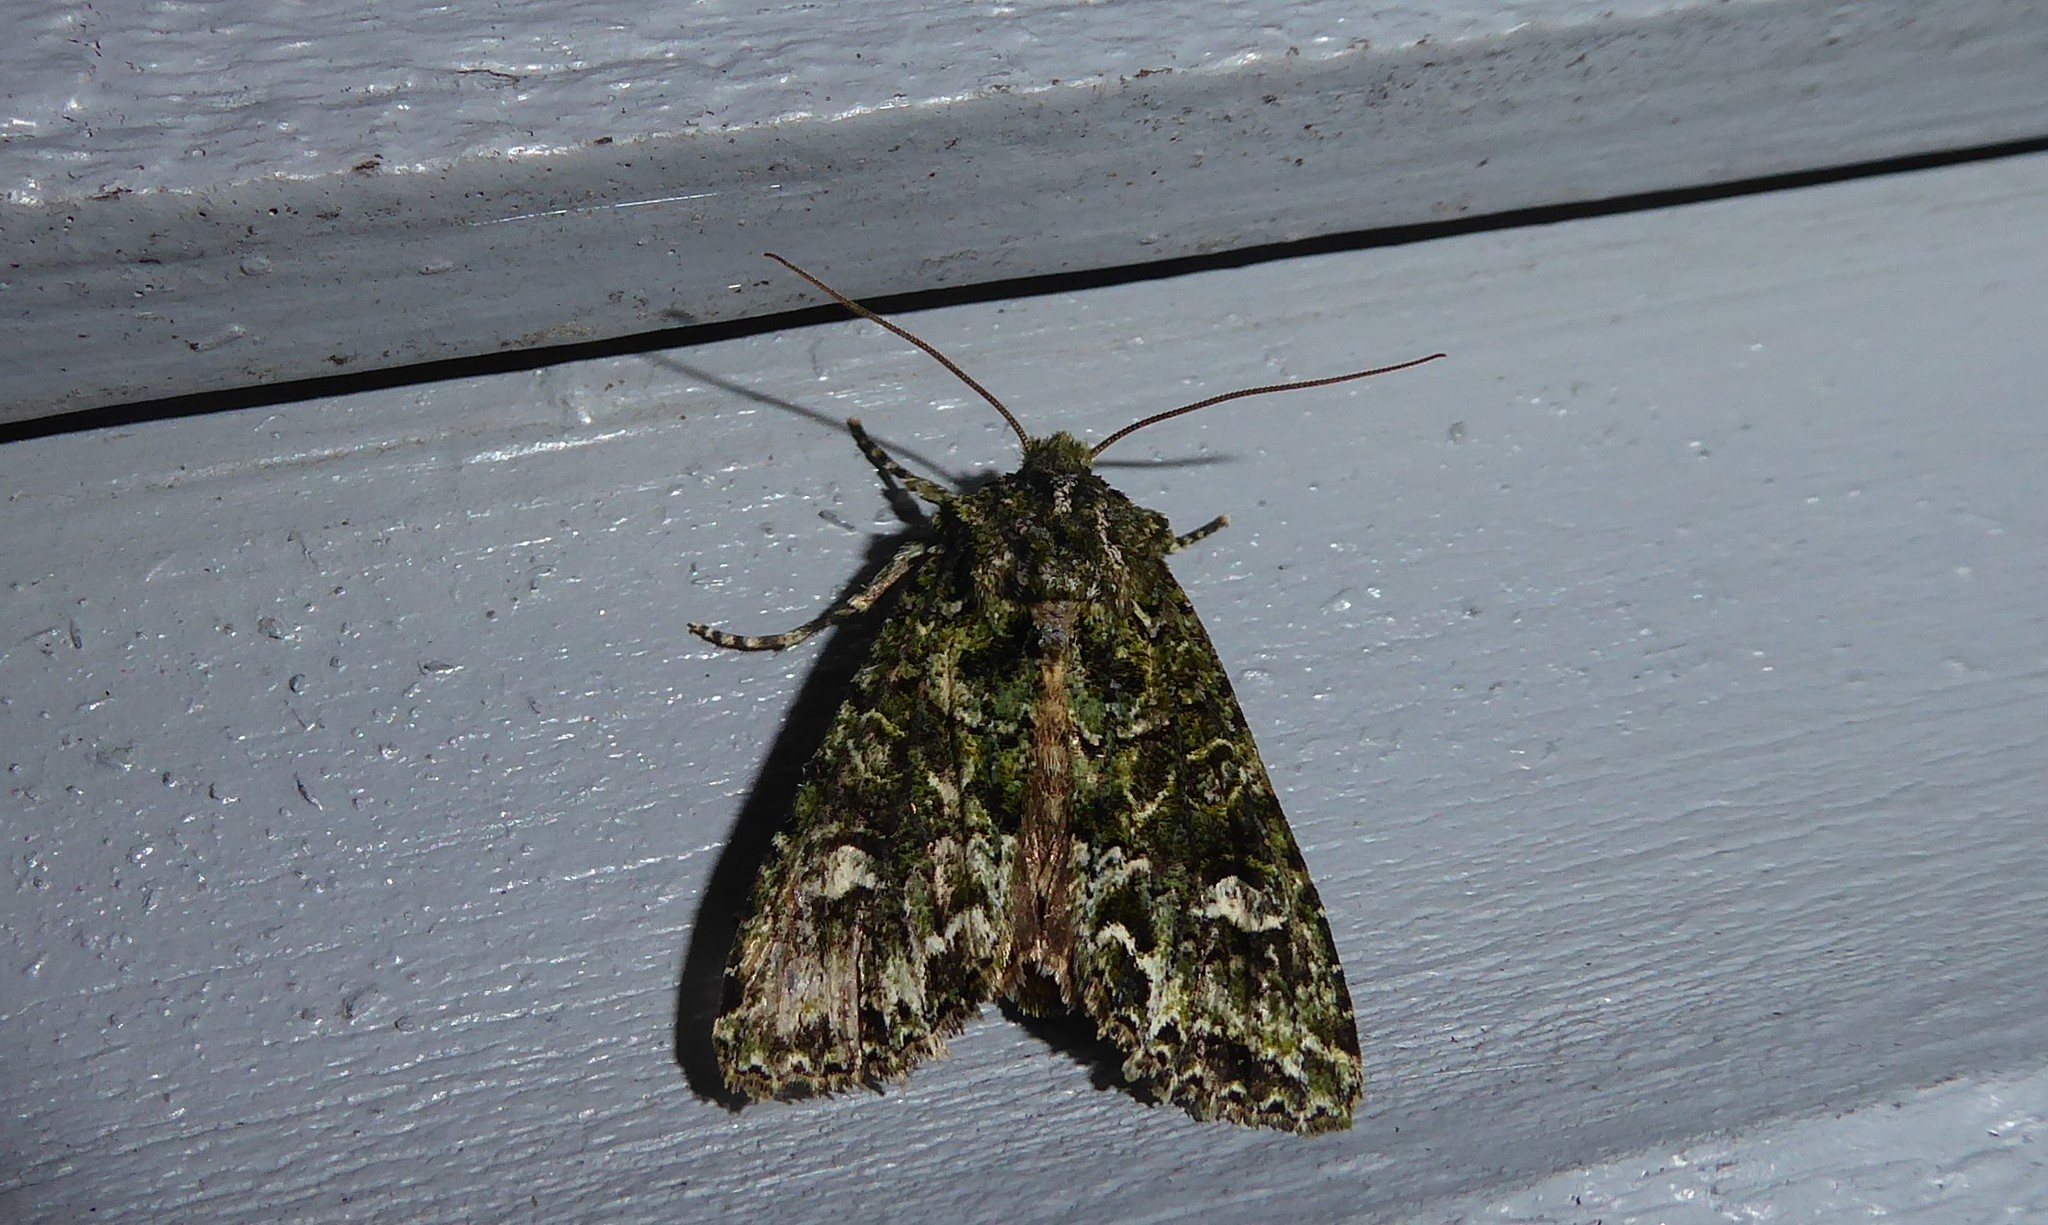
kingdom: Animalia
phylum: Arthropoda
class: Insecta
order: Lepidoptera
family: Noctuidae
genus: Ichneutica
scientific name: Ichneutica
